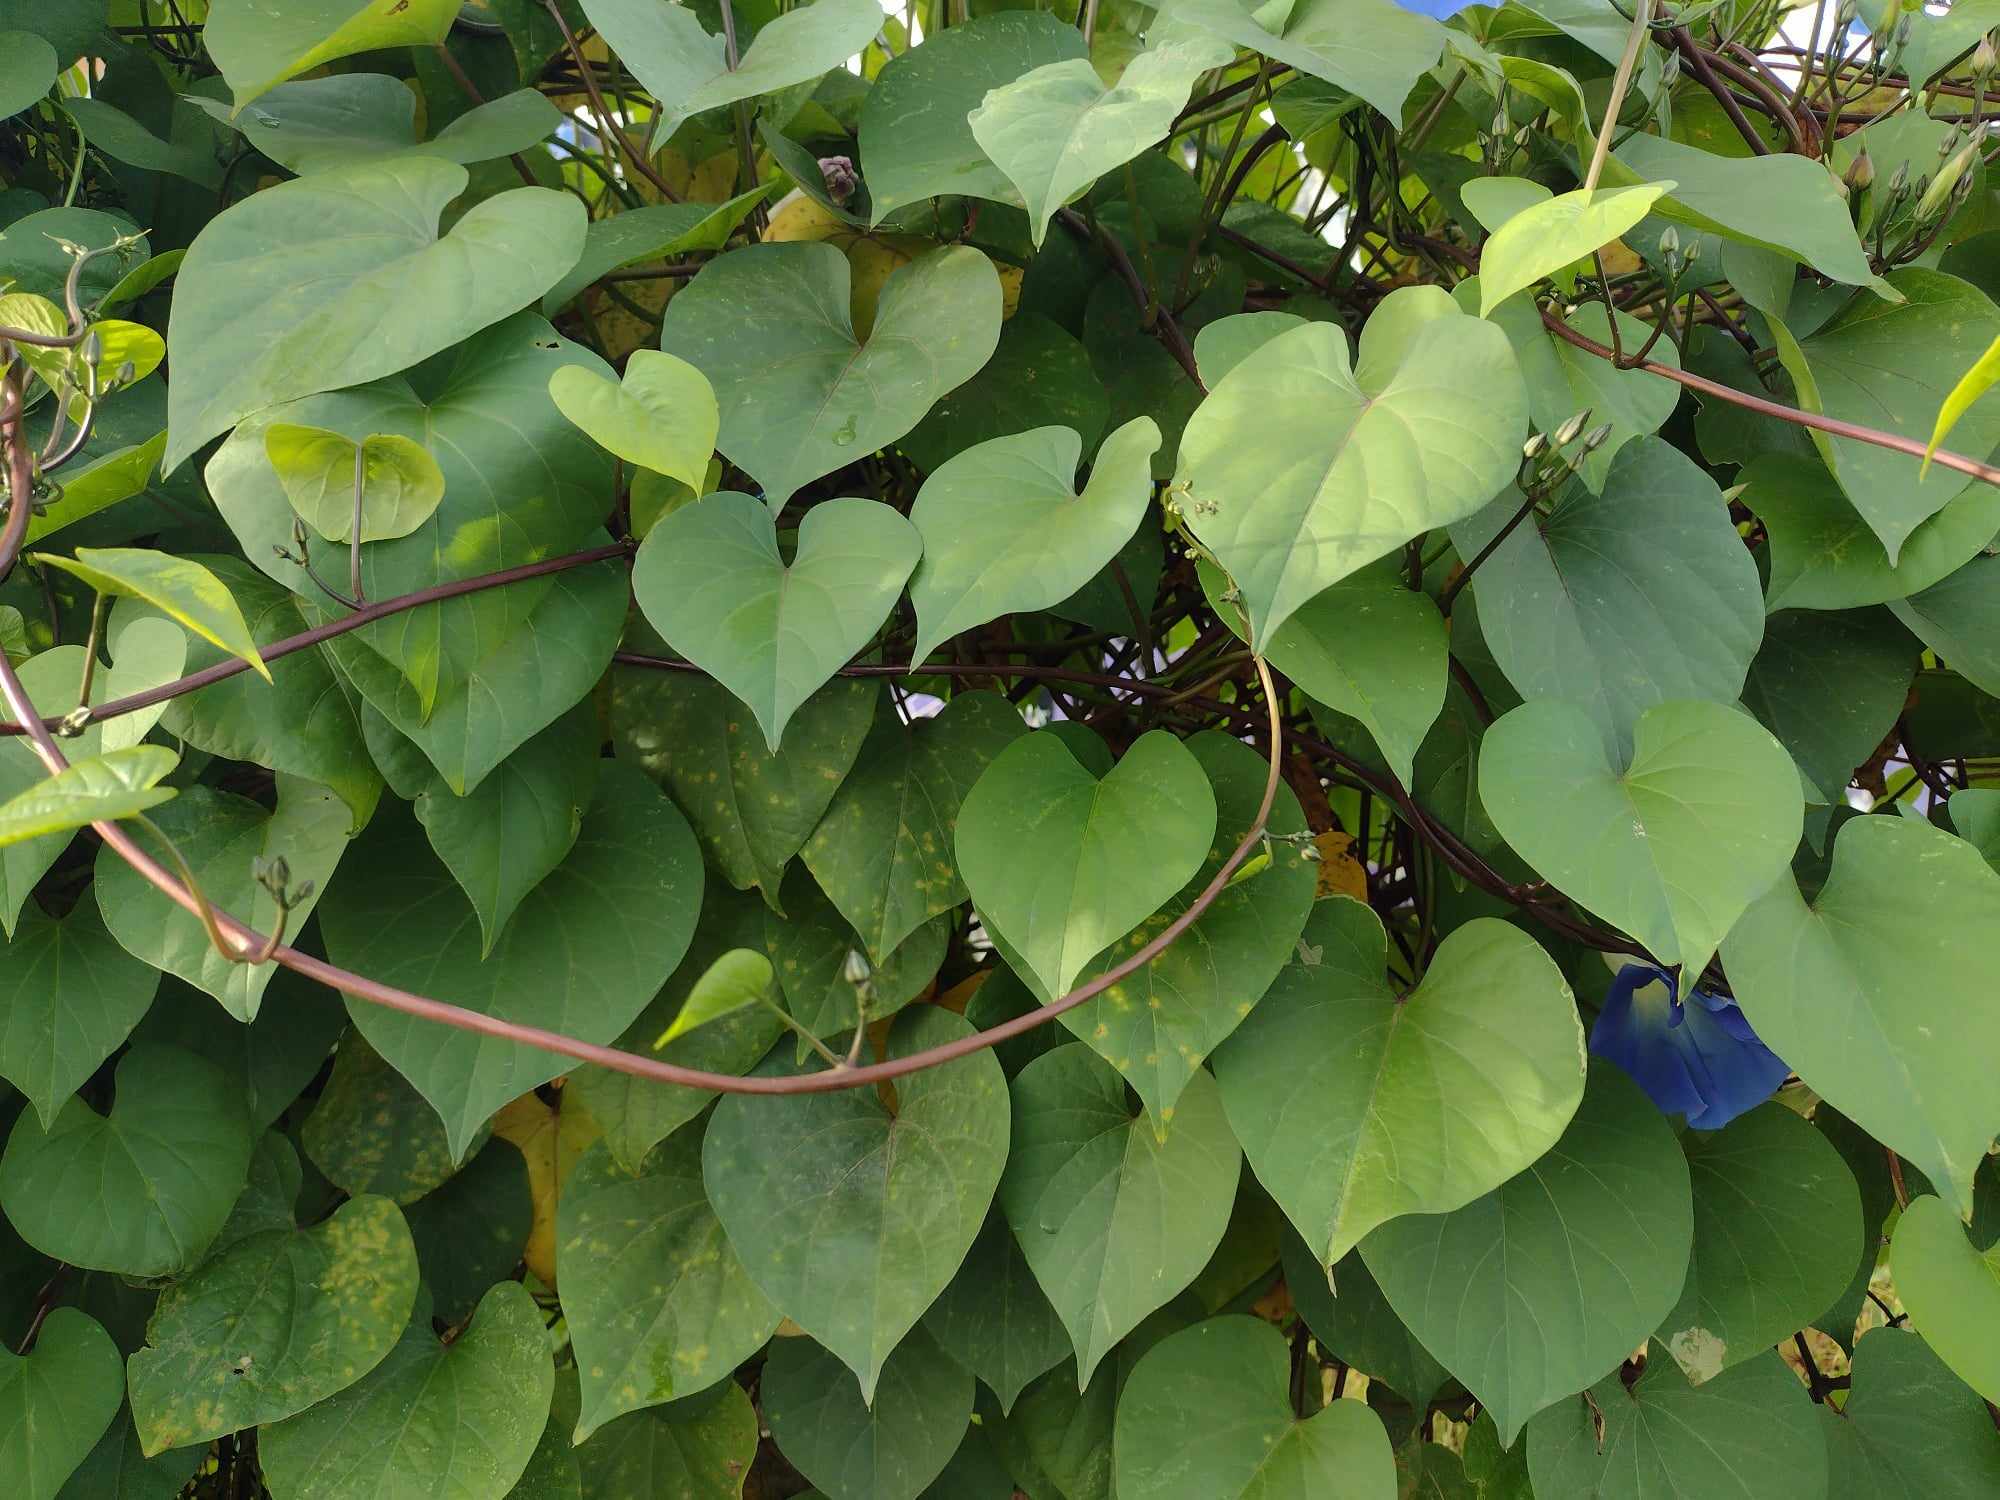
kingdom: Plantae
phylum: Tracheophyta
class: Magnoliopsida
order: Solanales
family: Convolvulaceae
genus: Ipomoea
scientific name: Ipomoea tricolor
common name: Morning-glory
